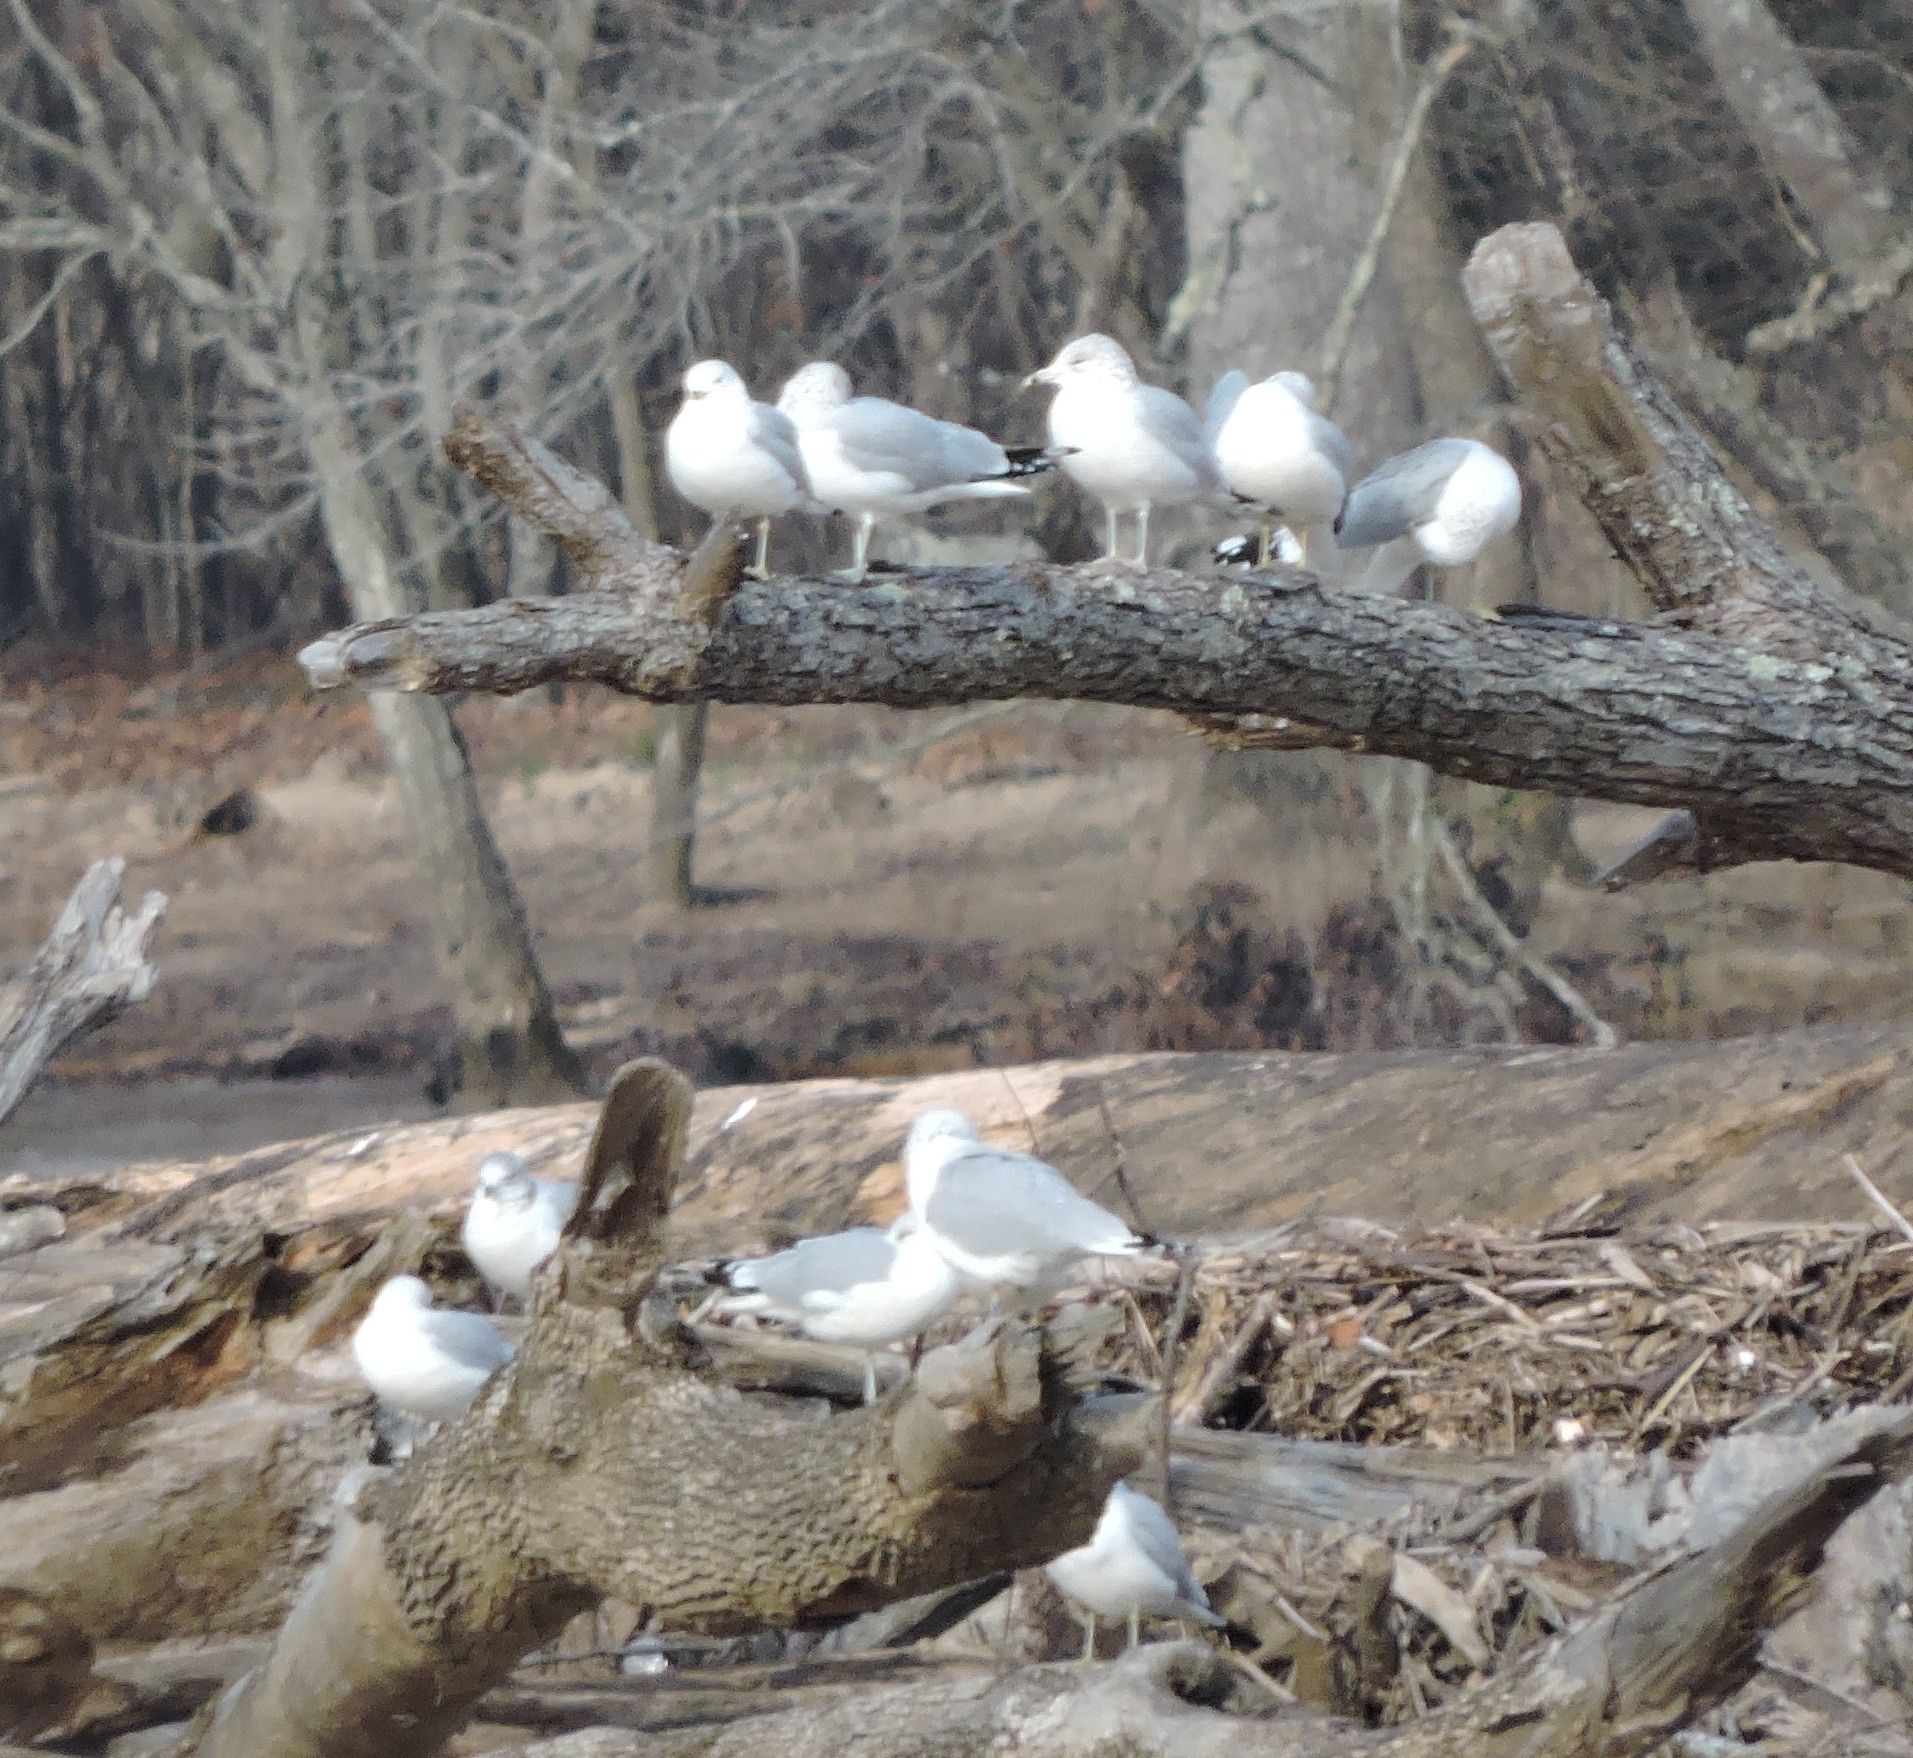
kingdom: Animalia
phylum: Chordata
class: Aves
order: Charadriiformes
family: Laridae
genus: Larus
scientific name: Larus delawarensis
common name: Ring-billed gull
